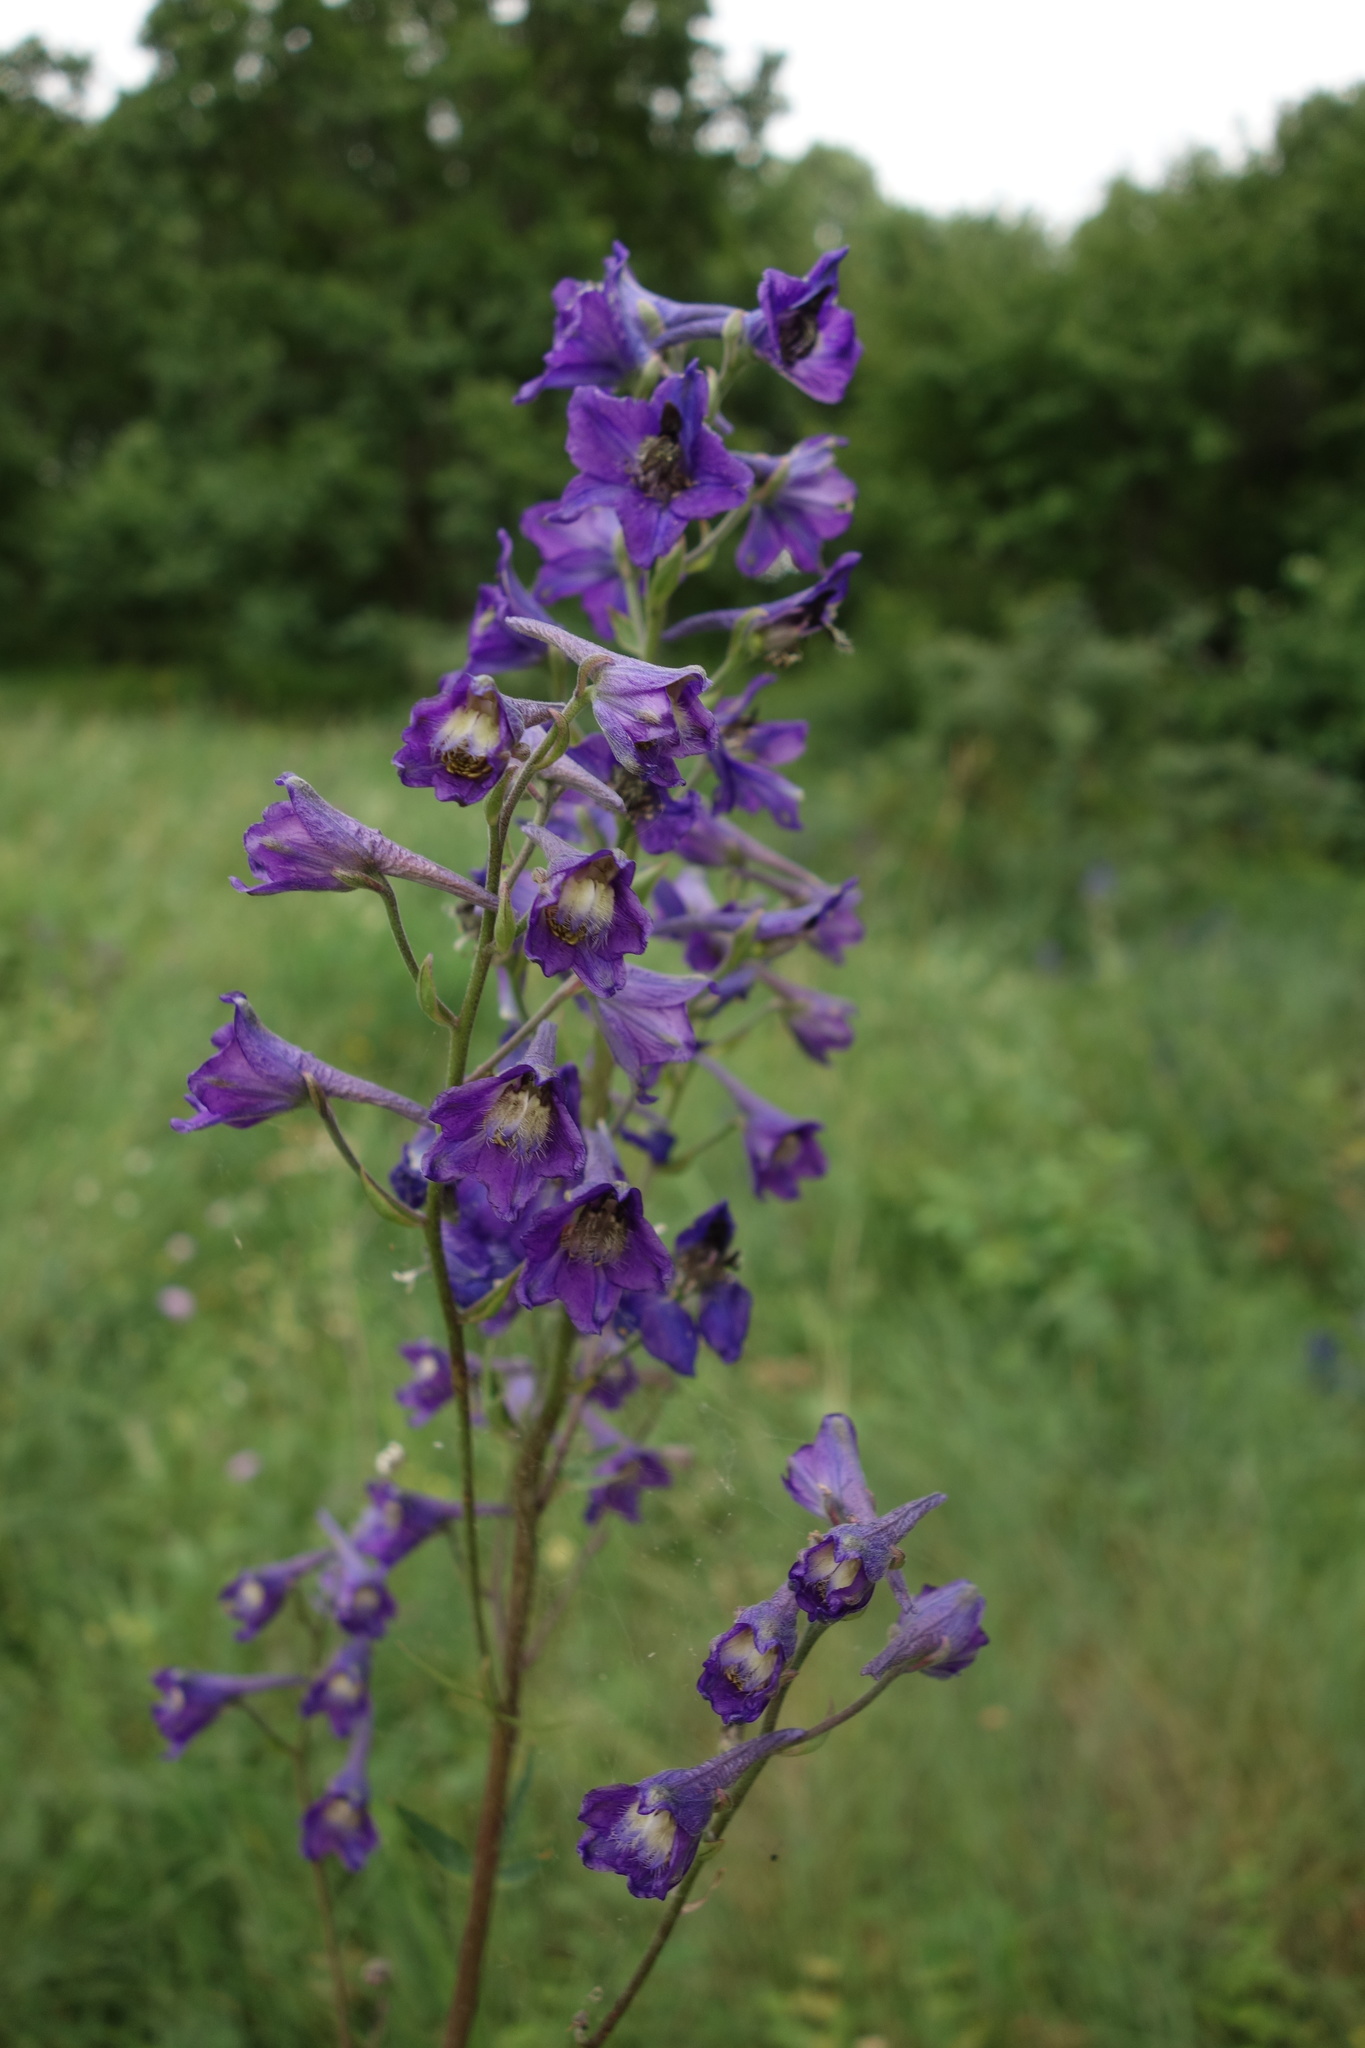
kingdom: Plantae
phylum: Tracheophyta
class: Magnoliopsida
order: Ranunculales
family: Ranunculaceae
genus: Delphinium
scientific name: Delphinium cuneatum
